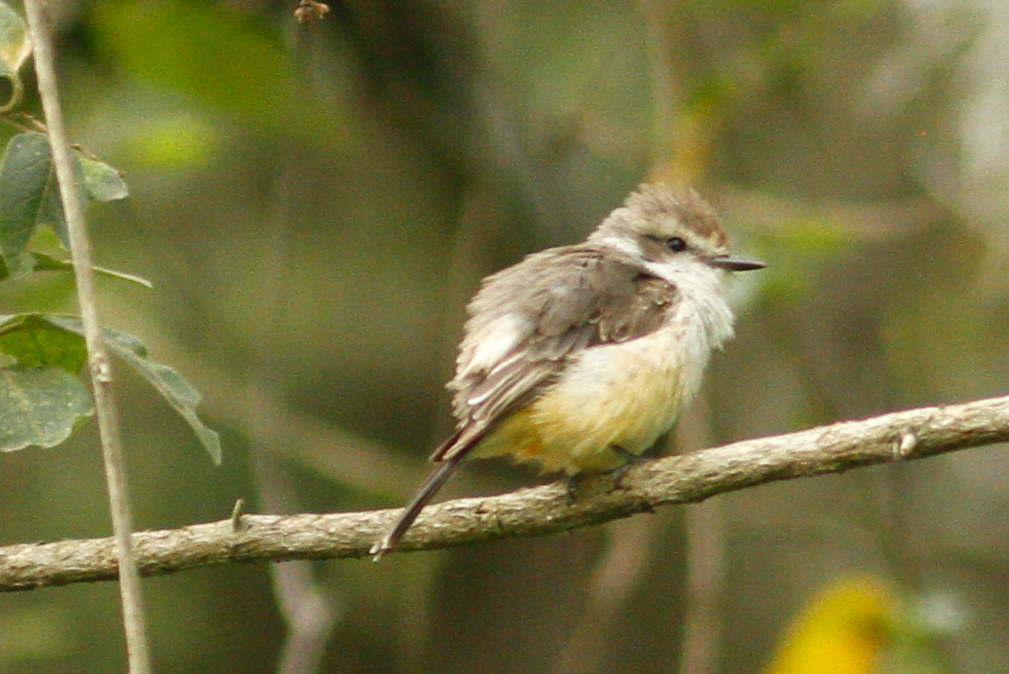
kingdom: Animalia
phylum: Chordata
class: Aves
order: Passeriformes
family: Tyrannidae
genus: Pyrocephalus
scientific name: Pyrocephalus rubinus
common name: Vermilion flycatcher
